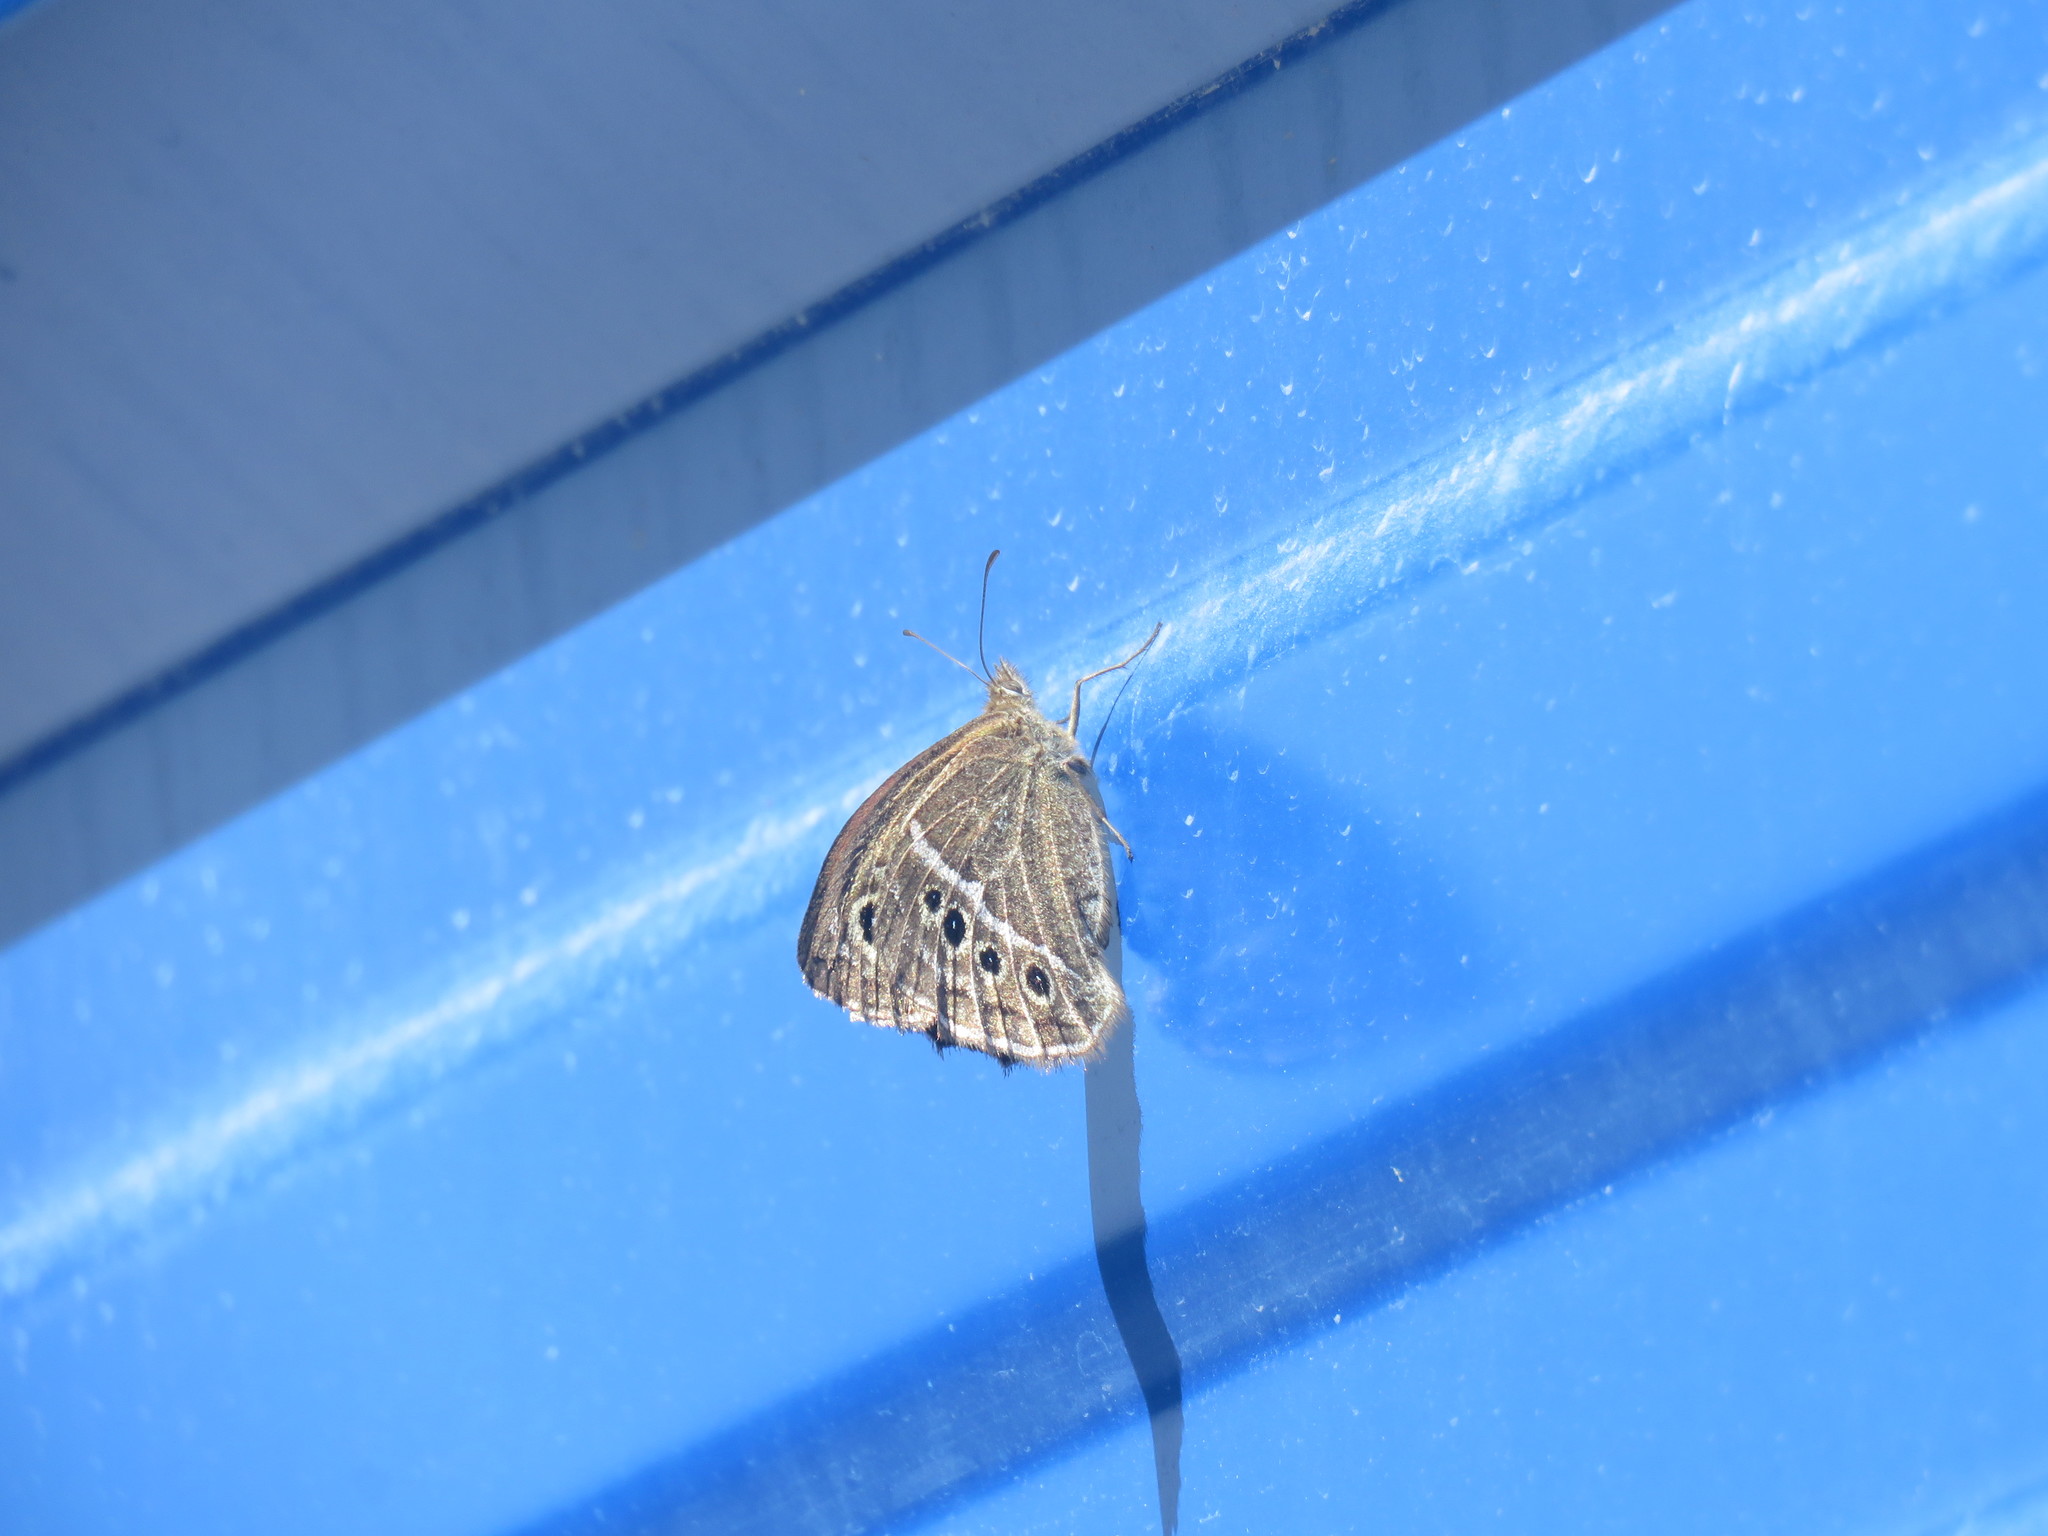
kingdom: Animalia
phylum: Arthropoda
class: Insecta
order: Lepidoptera
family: Nymphalidae
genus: Pampasatyrus
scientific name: Pampasatyrus gyrtone
